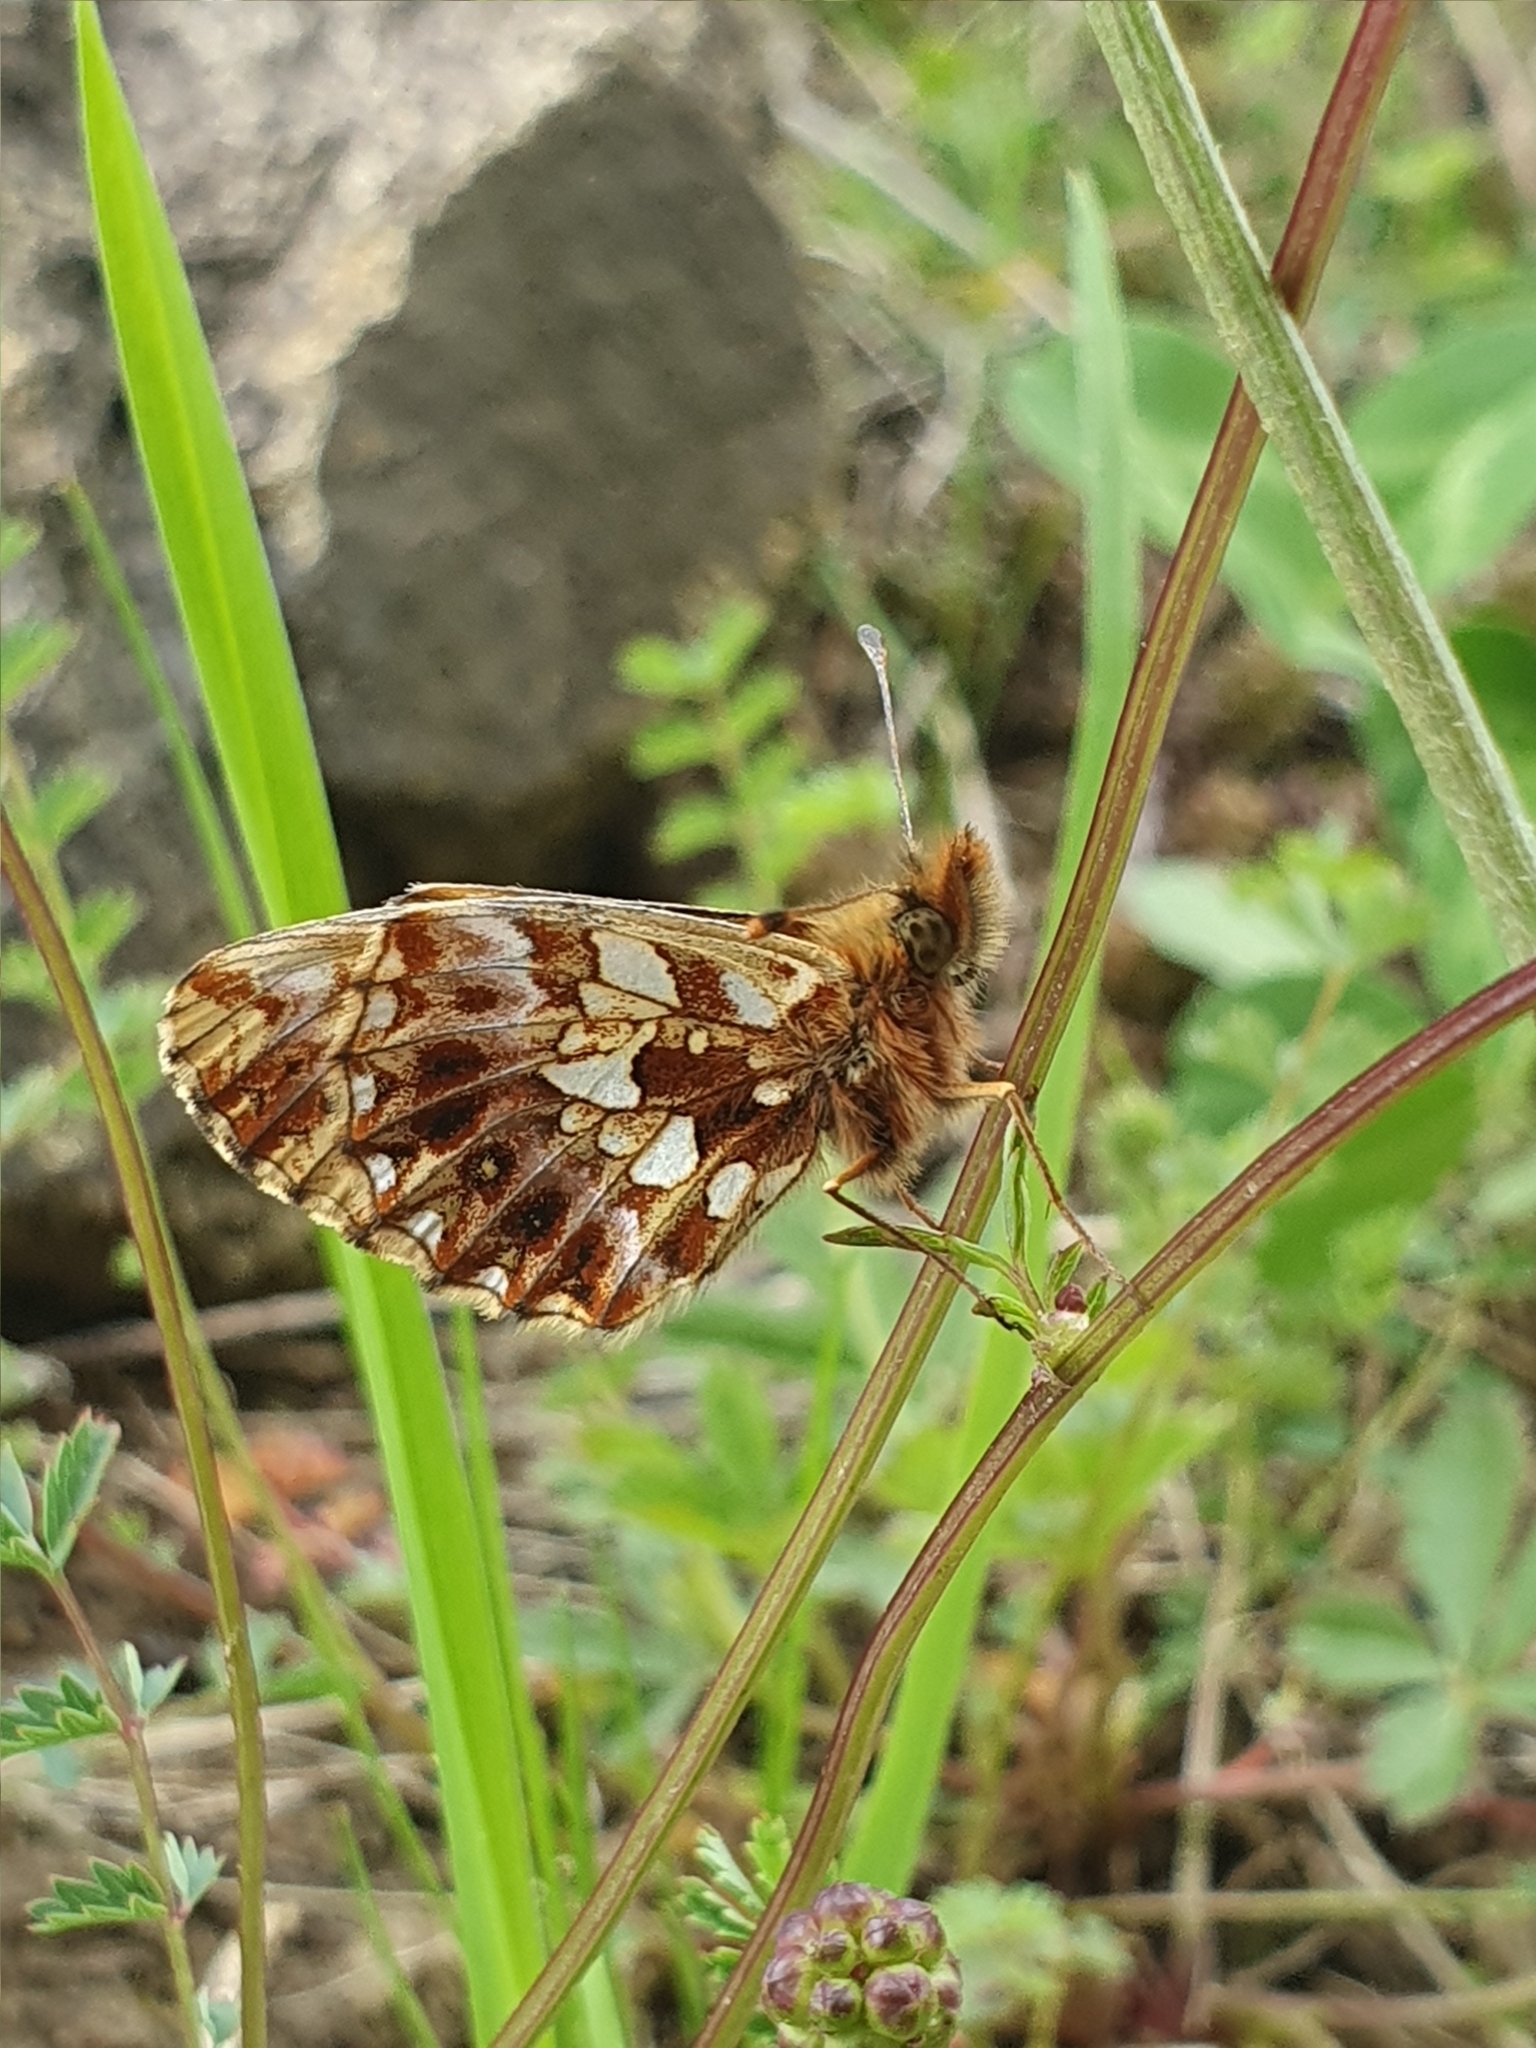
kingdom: Animalia
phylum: Arthropoda
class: Insecta
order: Lepidoptera
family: Nymphalidae
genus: Boloria
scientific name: Boloria dia
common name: Weaver's fritillary
